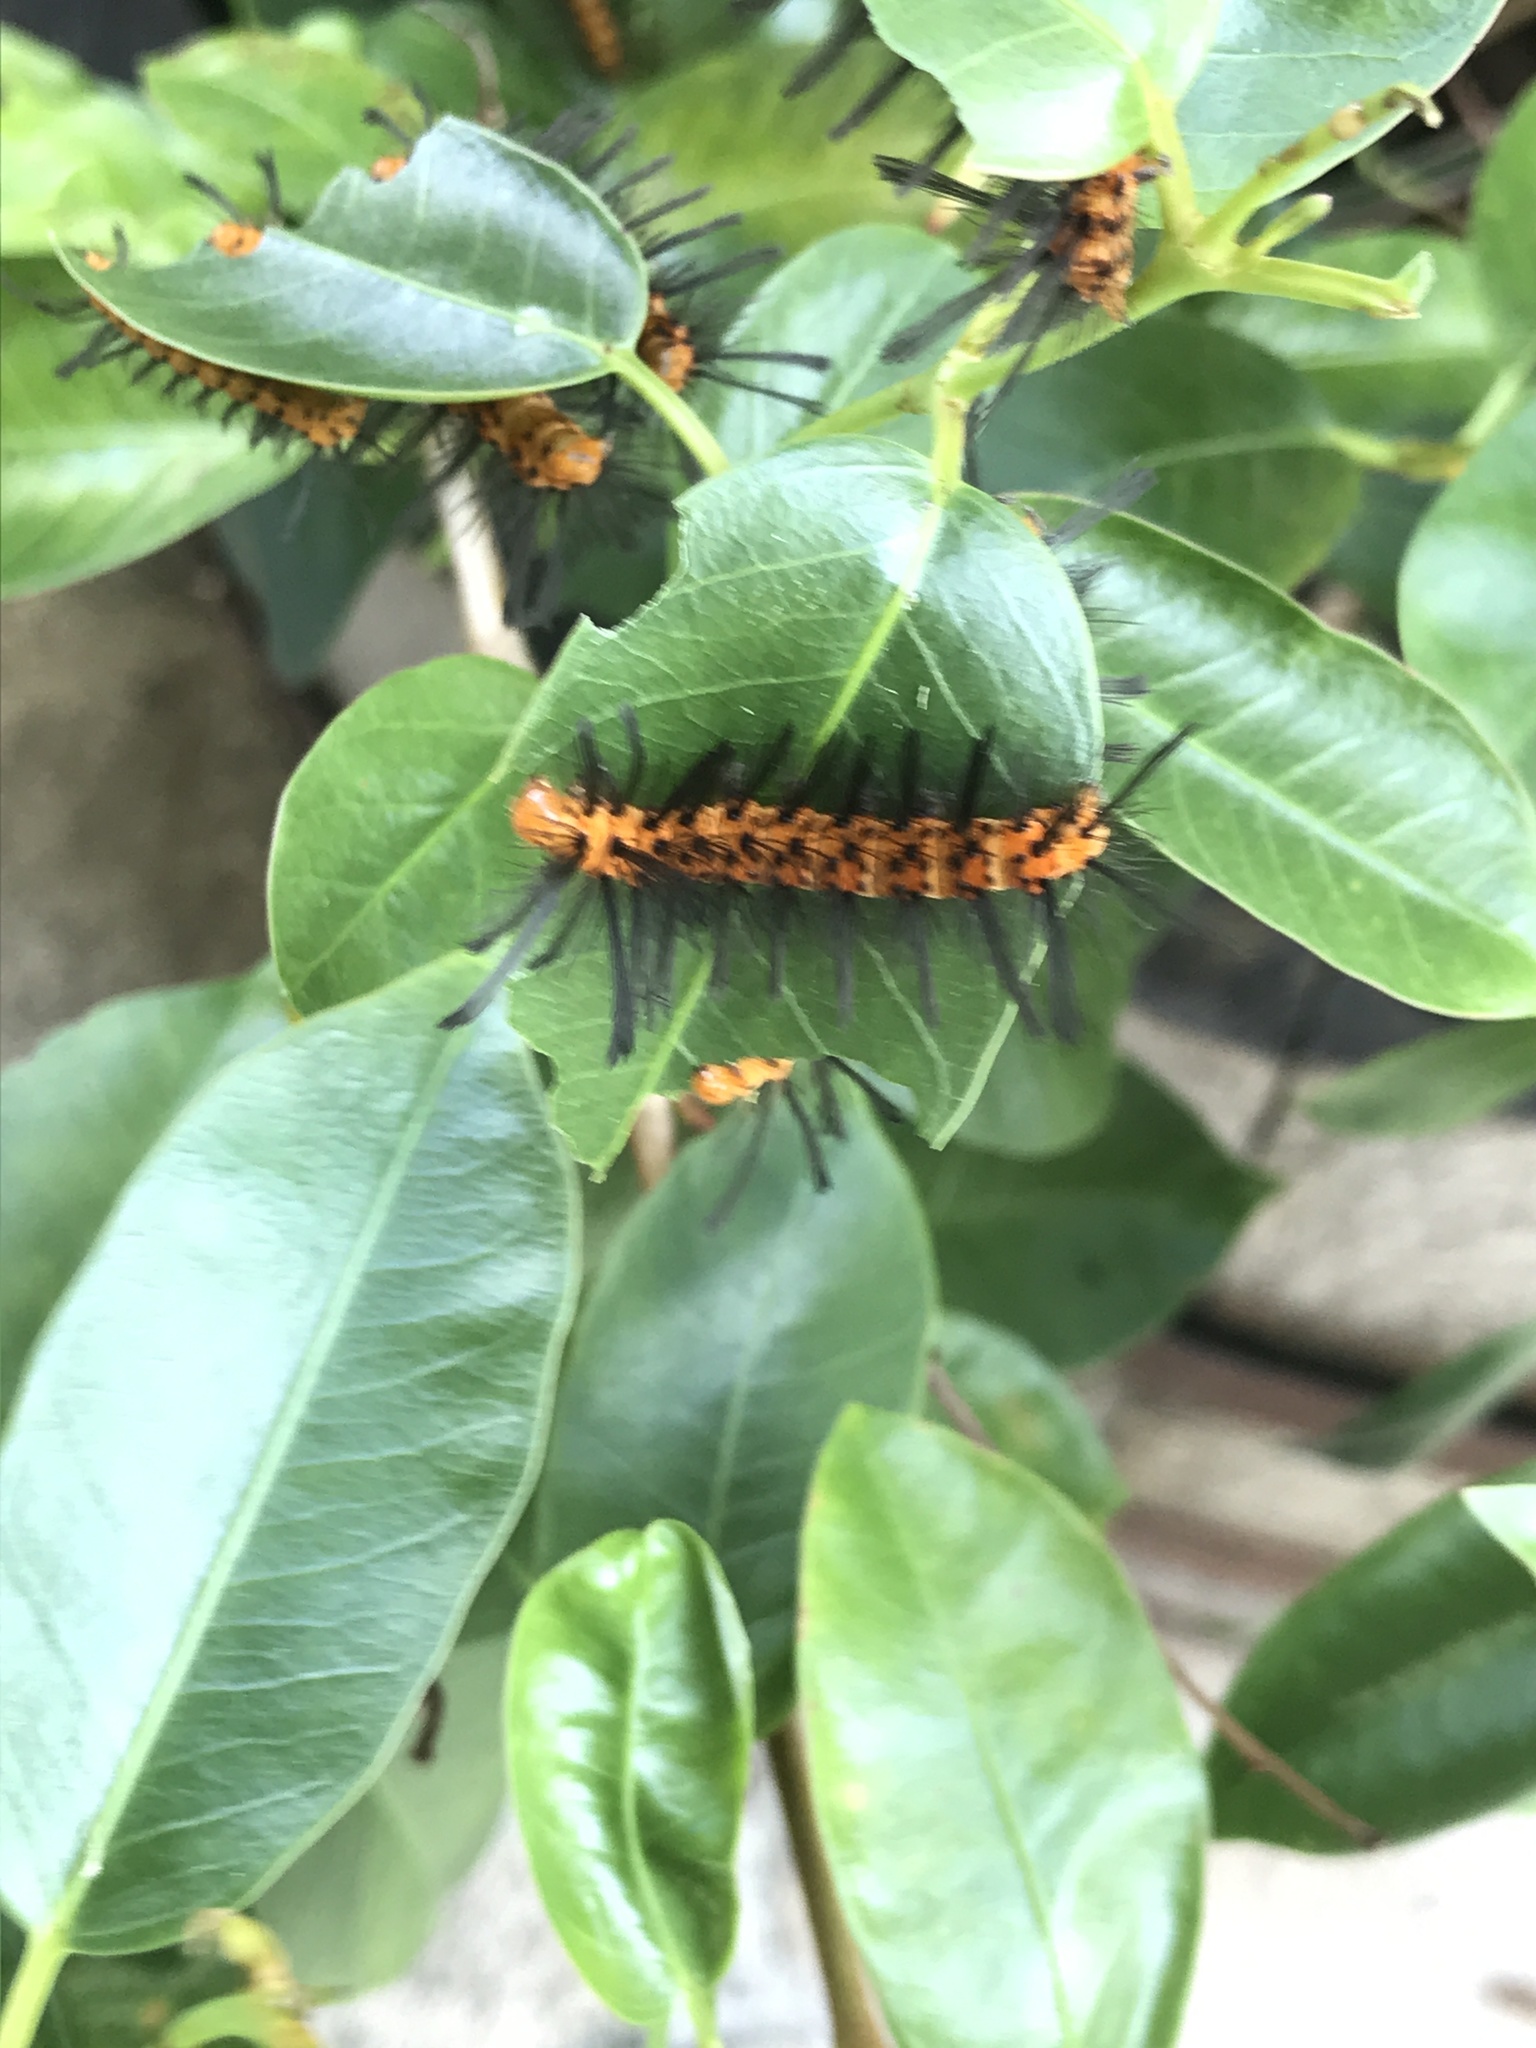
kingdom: Animalia
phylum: Arthropoda
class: Insecta
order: Lepidoptera
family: Erebidae
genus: Syntomeida
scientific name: Syntomeida epilais
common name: Polka-dot wasp moth
